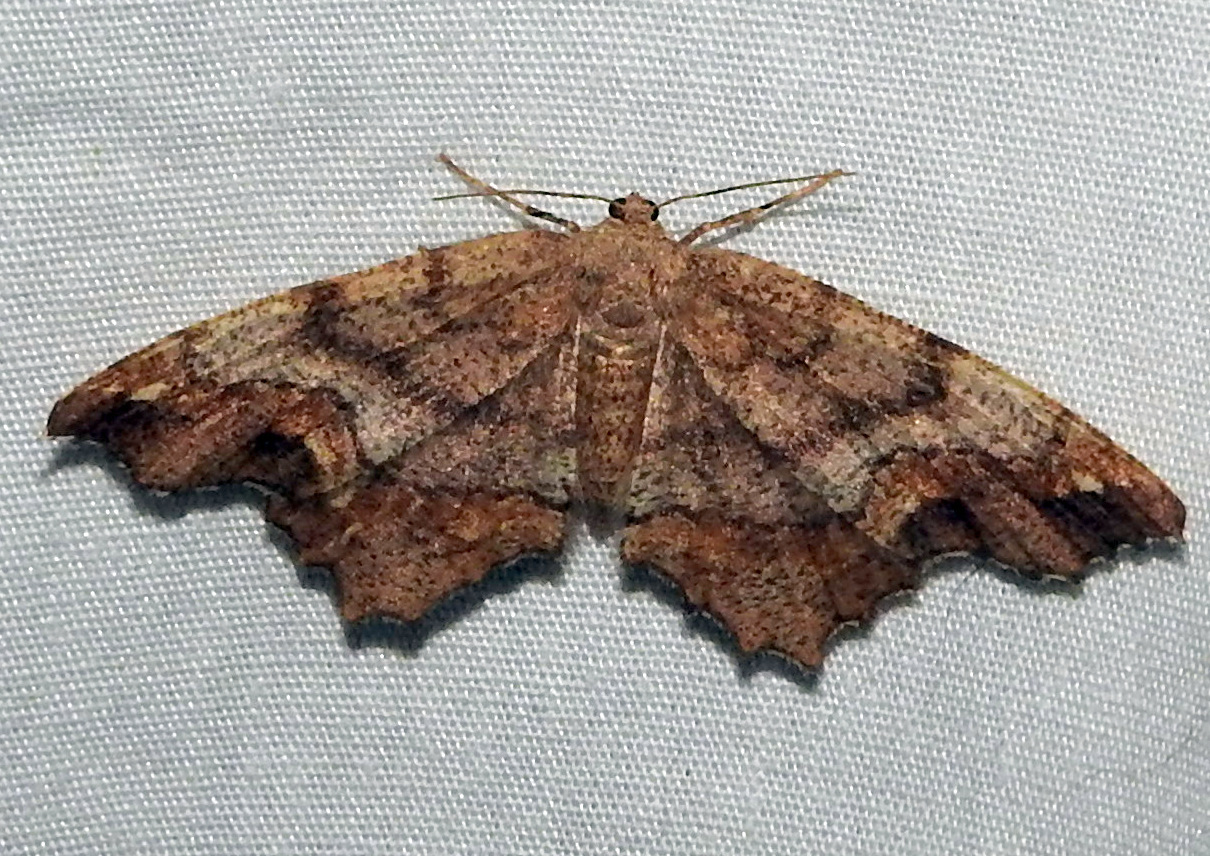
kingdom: Animalia
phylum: Arthropoda
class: Insecta
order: Lepidoptera
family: Geometridae
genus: Hypagyrtis
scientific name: Hypagyrtis unipunctata
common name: One-spotted variant
